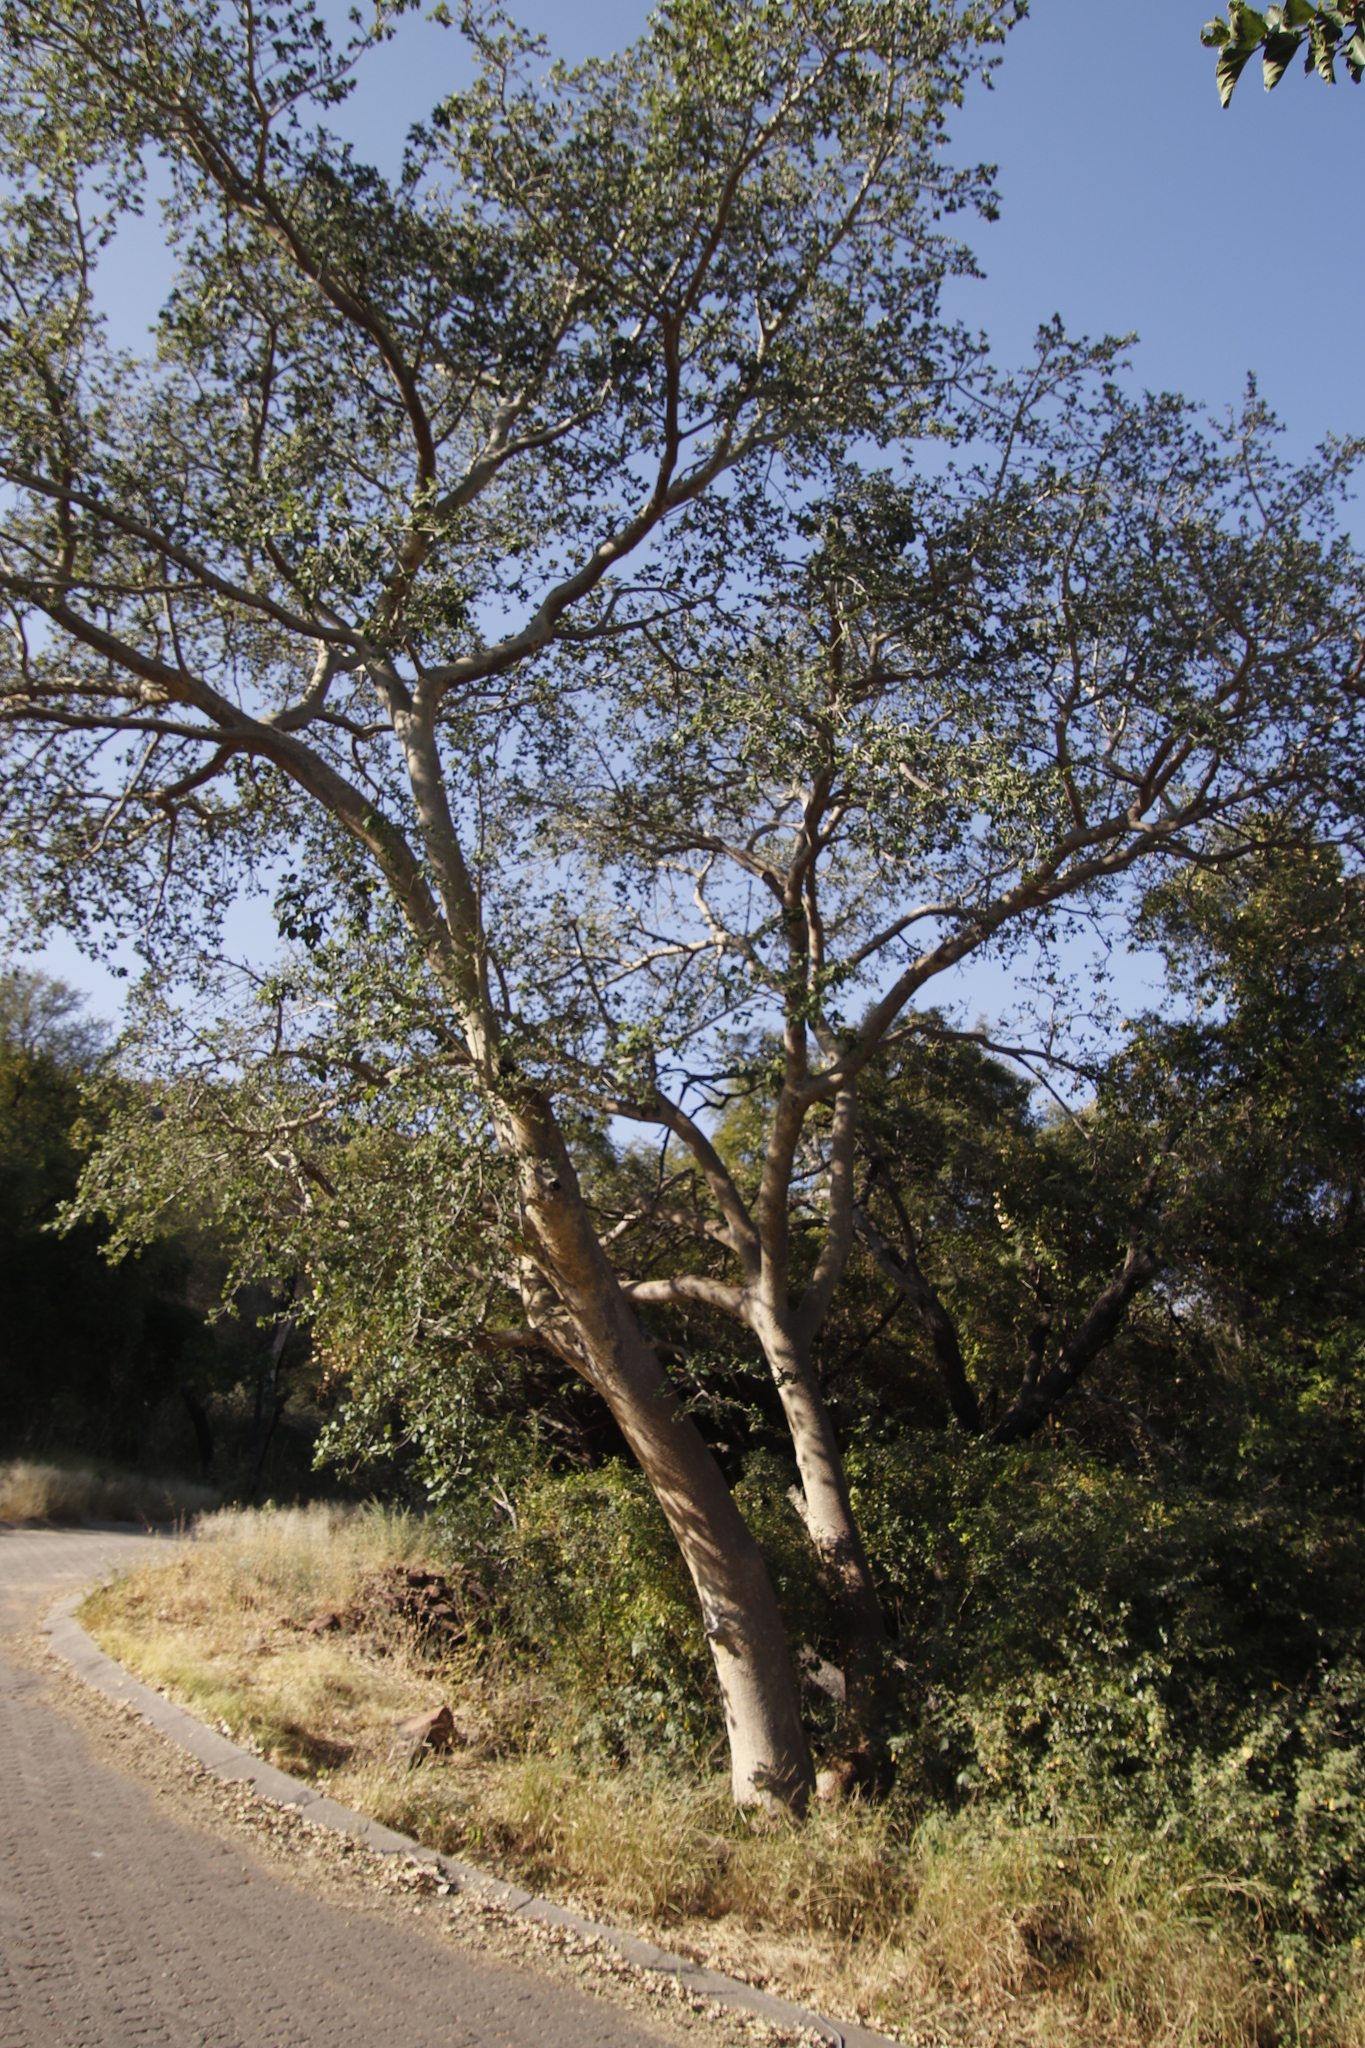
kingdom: Plantae
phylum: Tracheophyta
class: Magnoliopsida
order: Rosales
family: Moraceae
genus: Ficus
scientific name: Ficus sycomorus
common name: Sycomore
